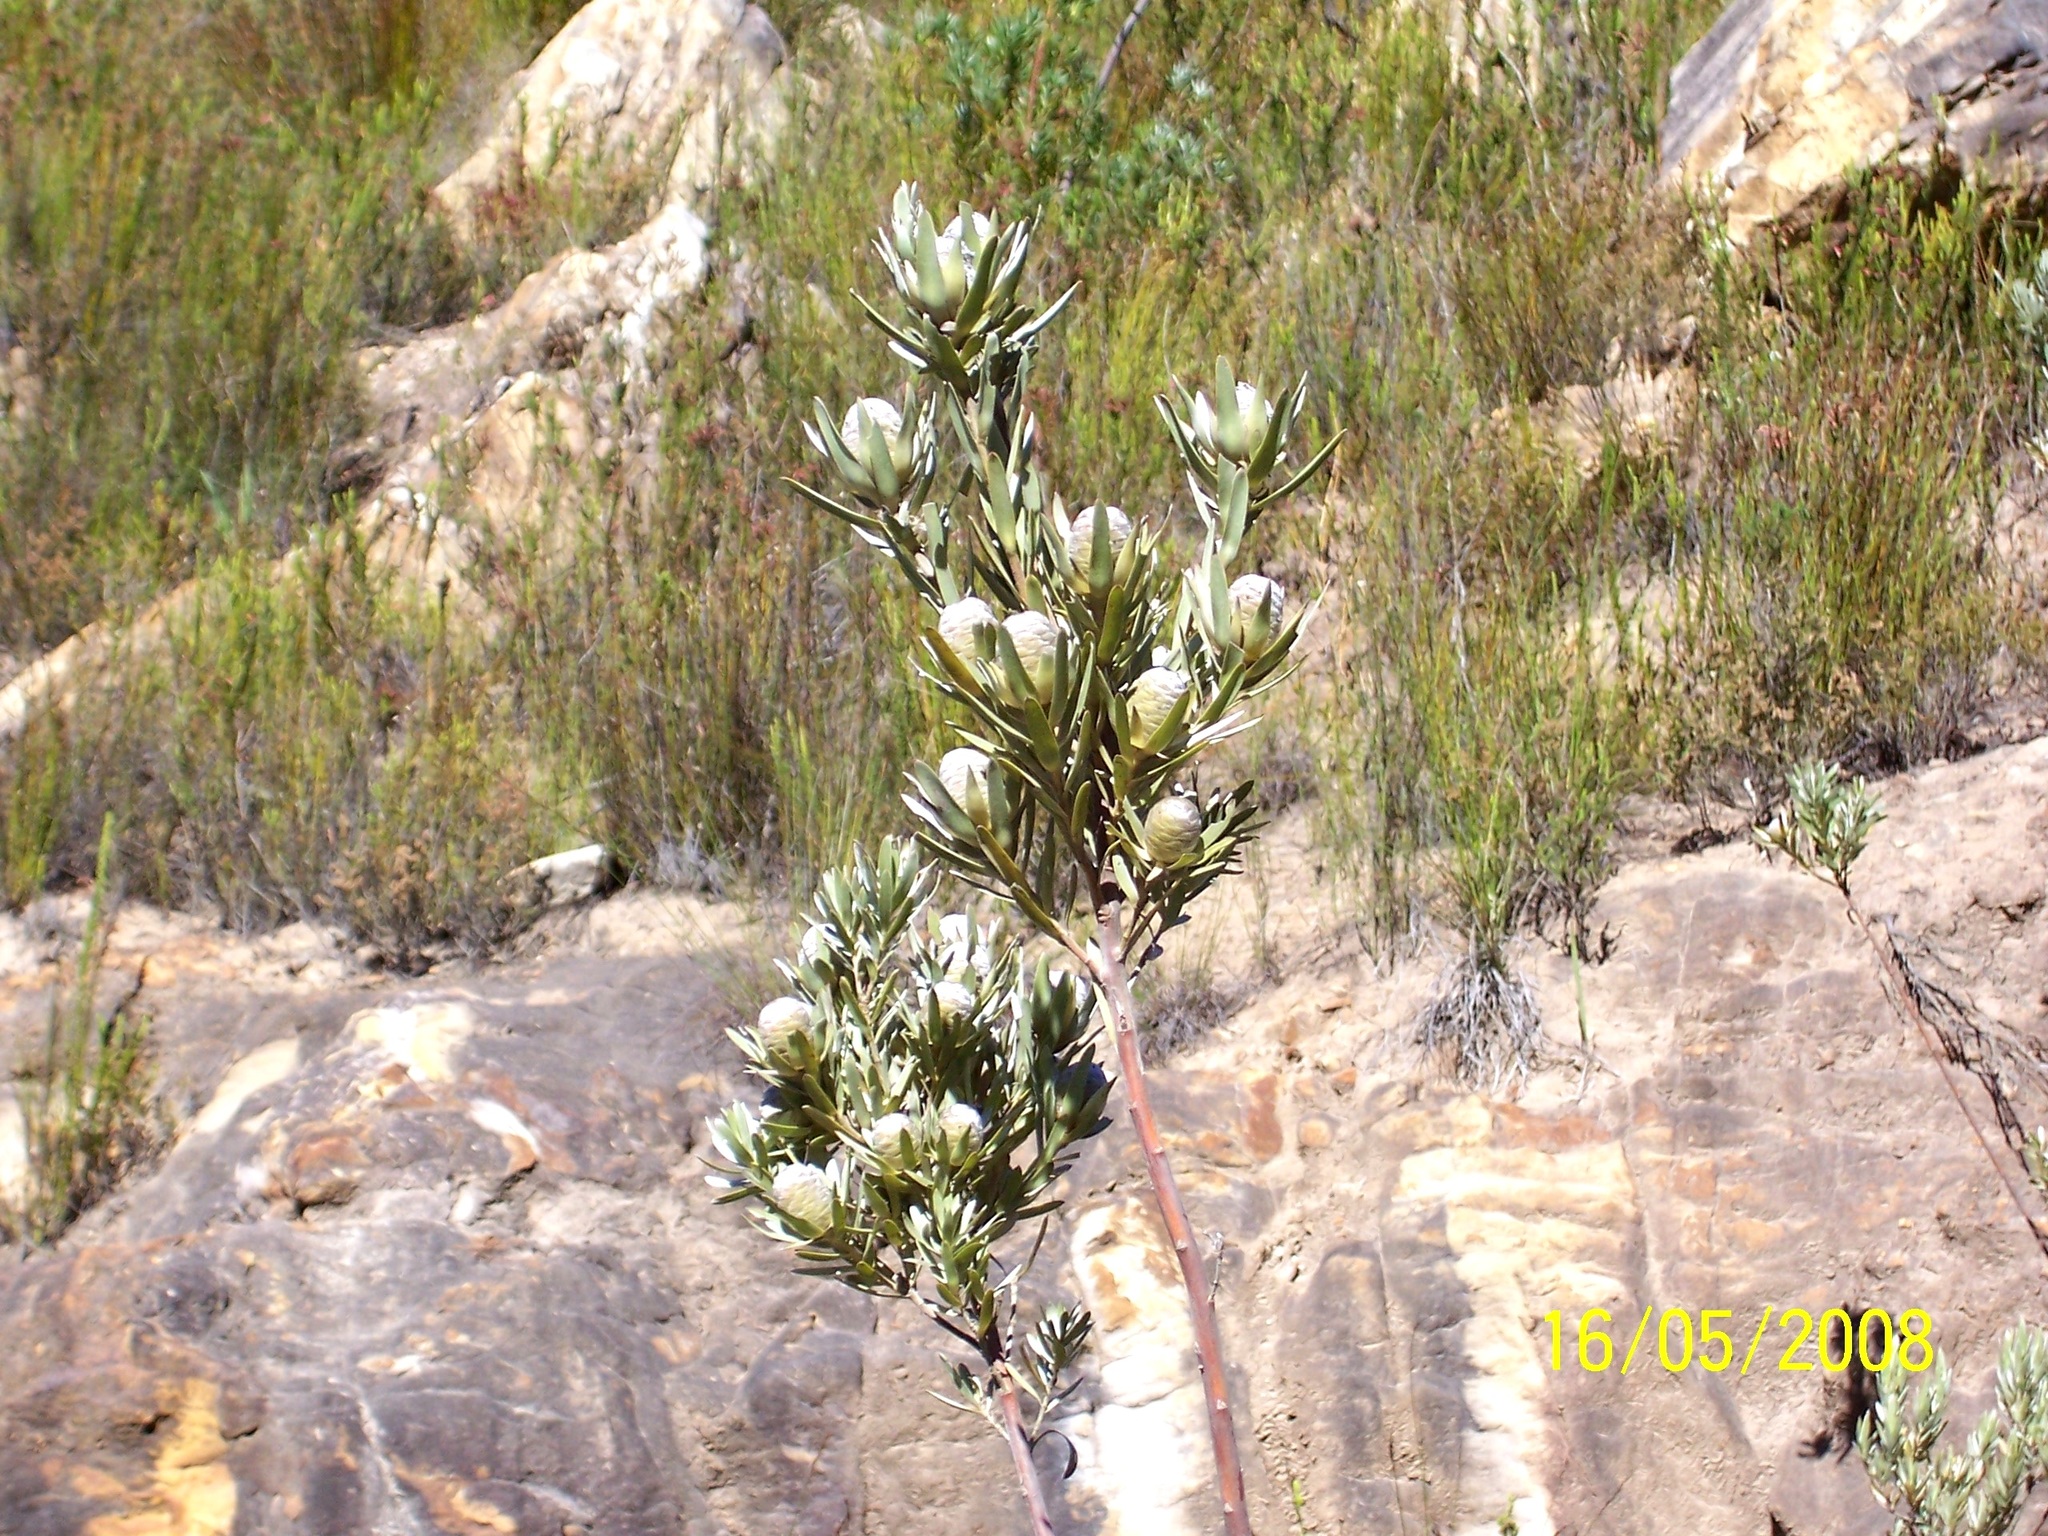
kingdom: Plantae
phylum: Tracheophyta
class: Magnoliopsida
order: Proteales
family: Proteaceae
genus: Leucadendron
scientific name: Leucadendron uliginosum
